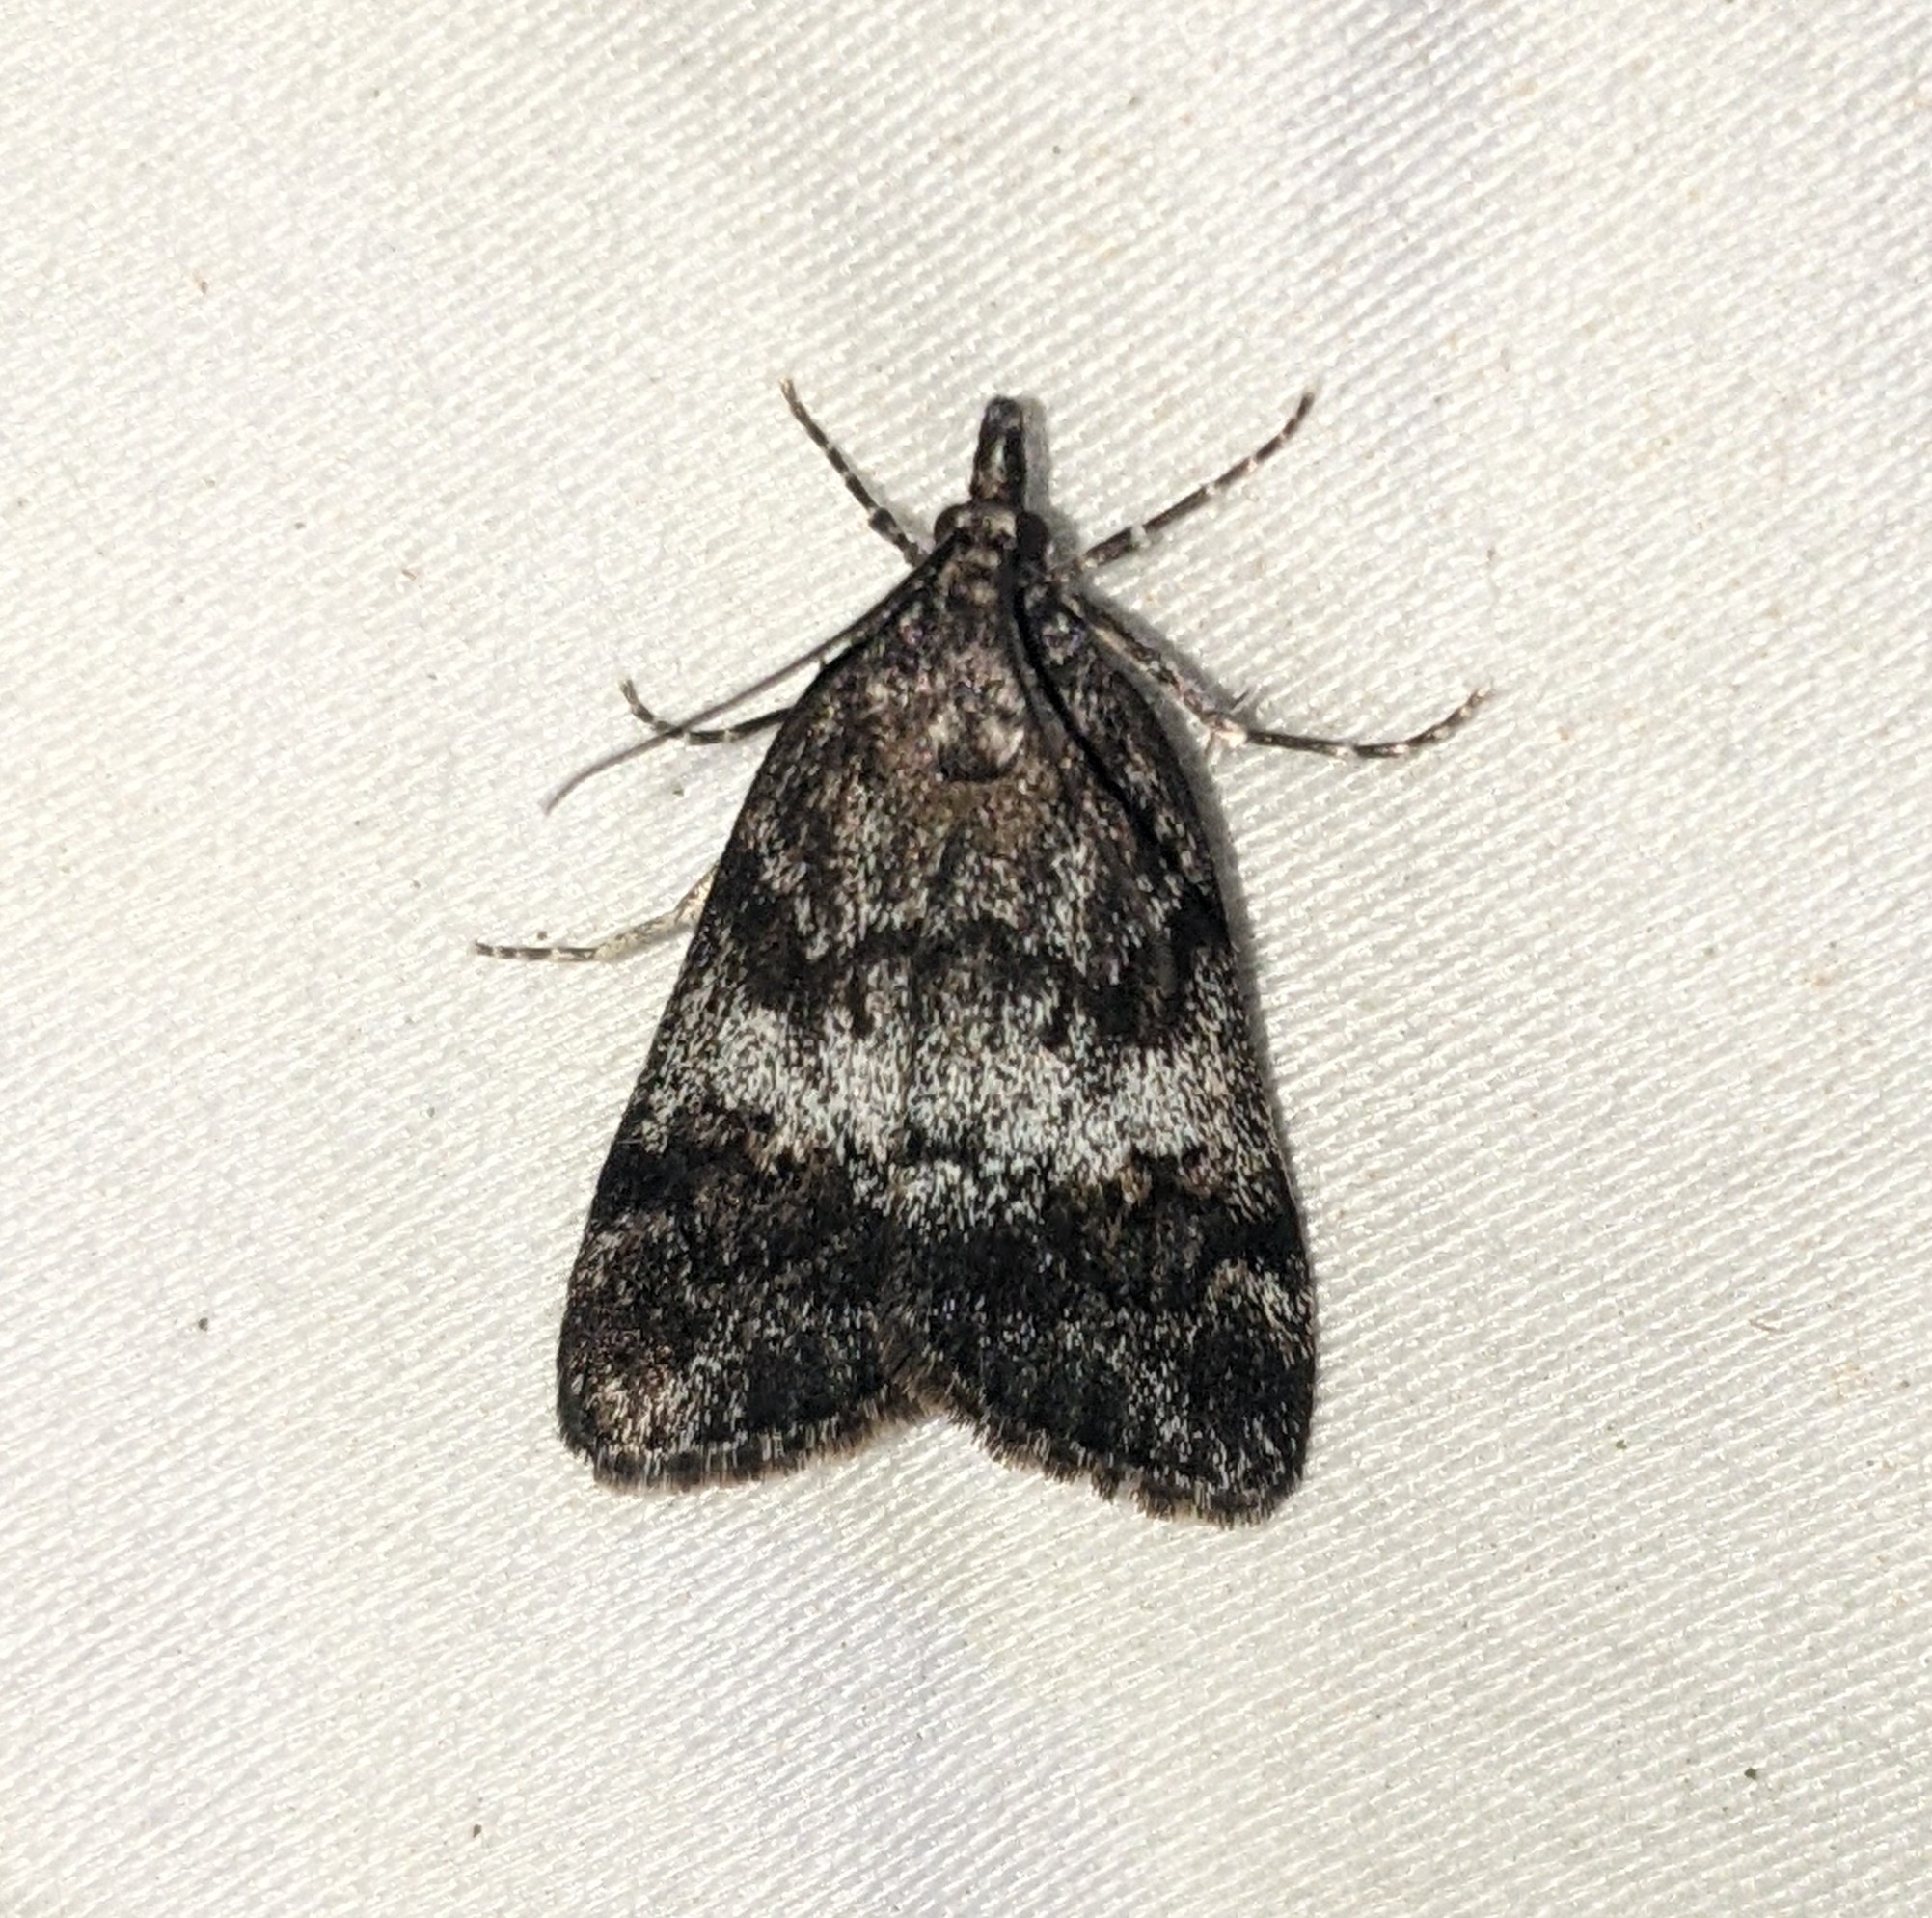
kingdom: Animalia
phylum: Arthropoda
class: Insecta
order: Lepidoptera
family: Crambidae
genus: Gesneria
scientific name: Gesneria centuriella
